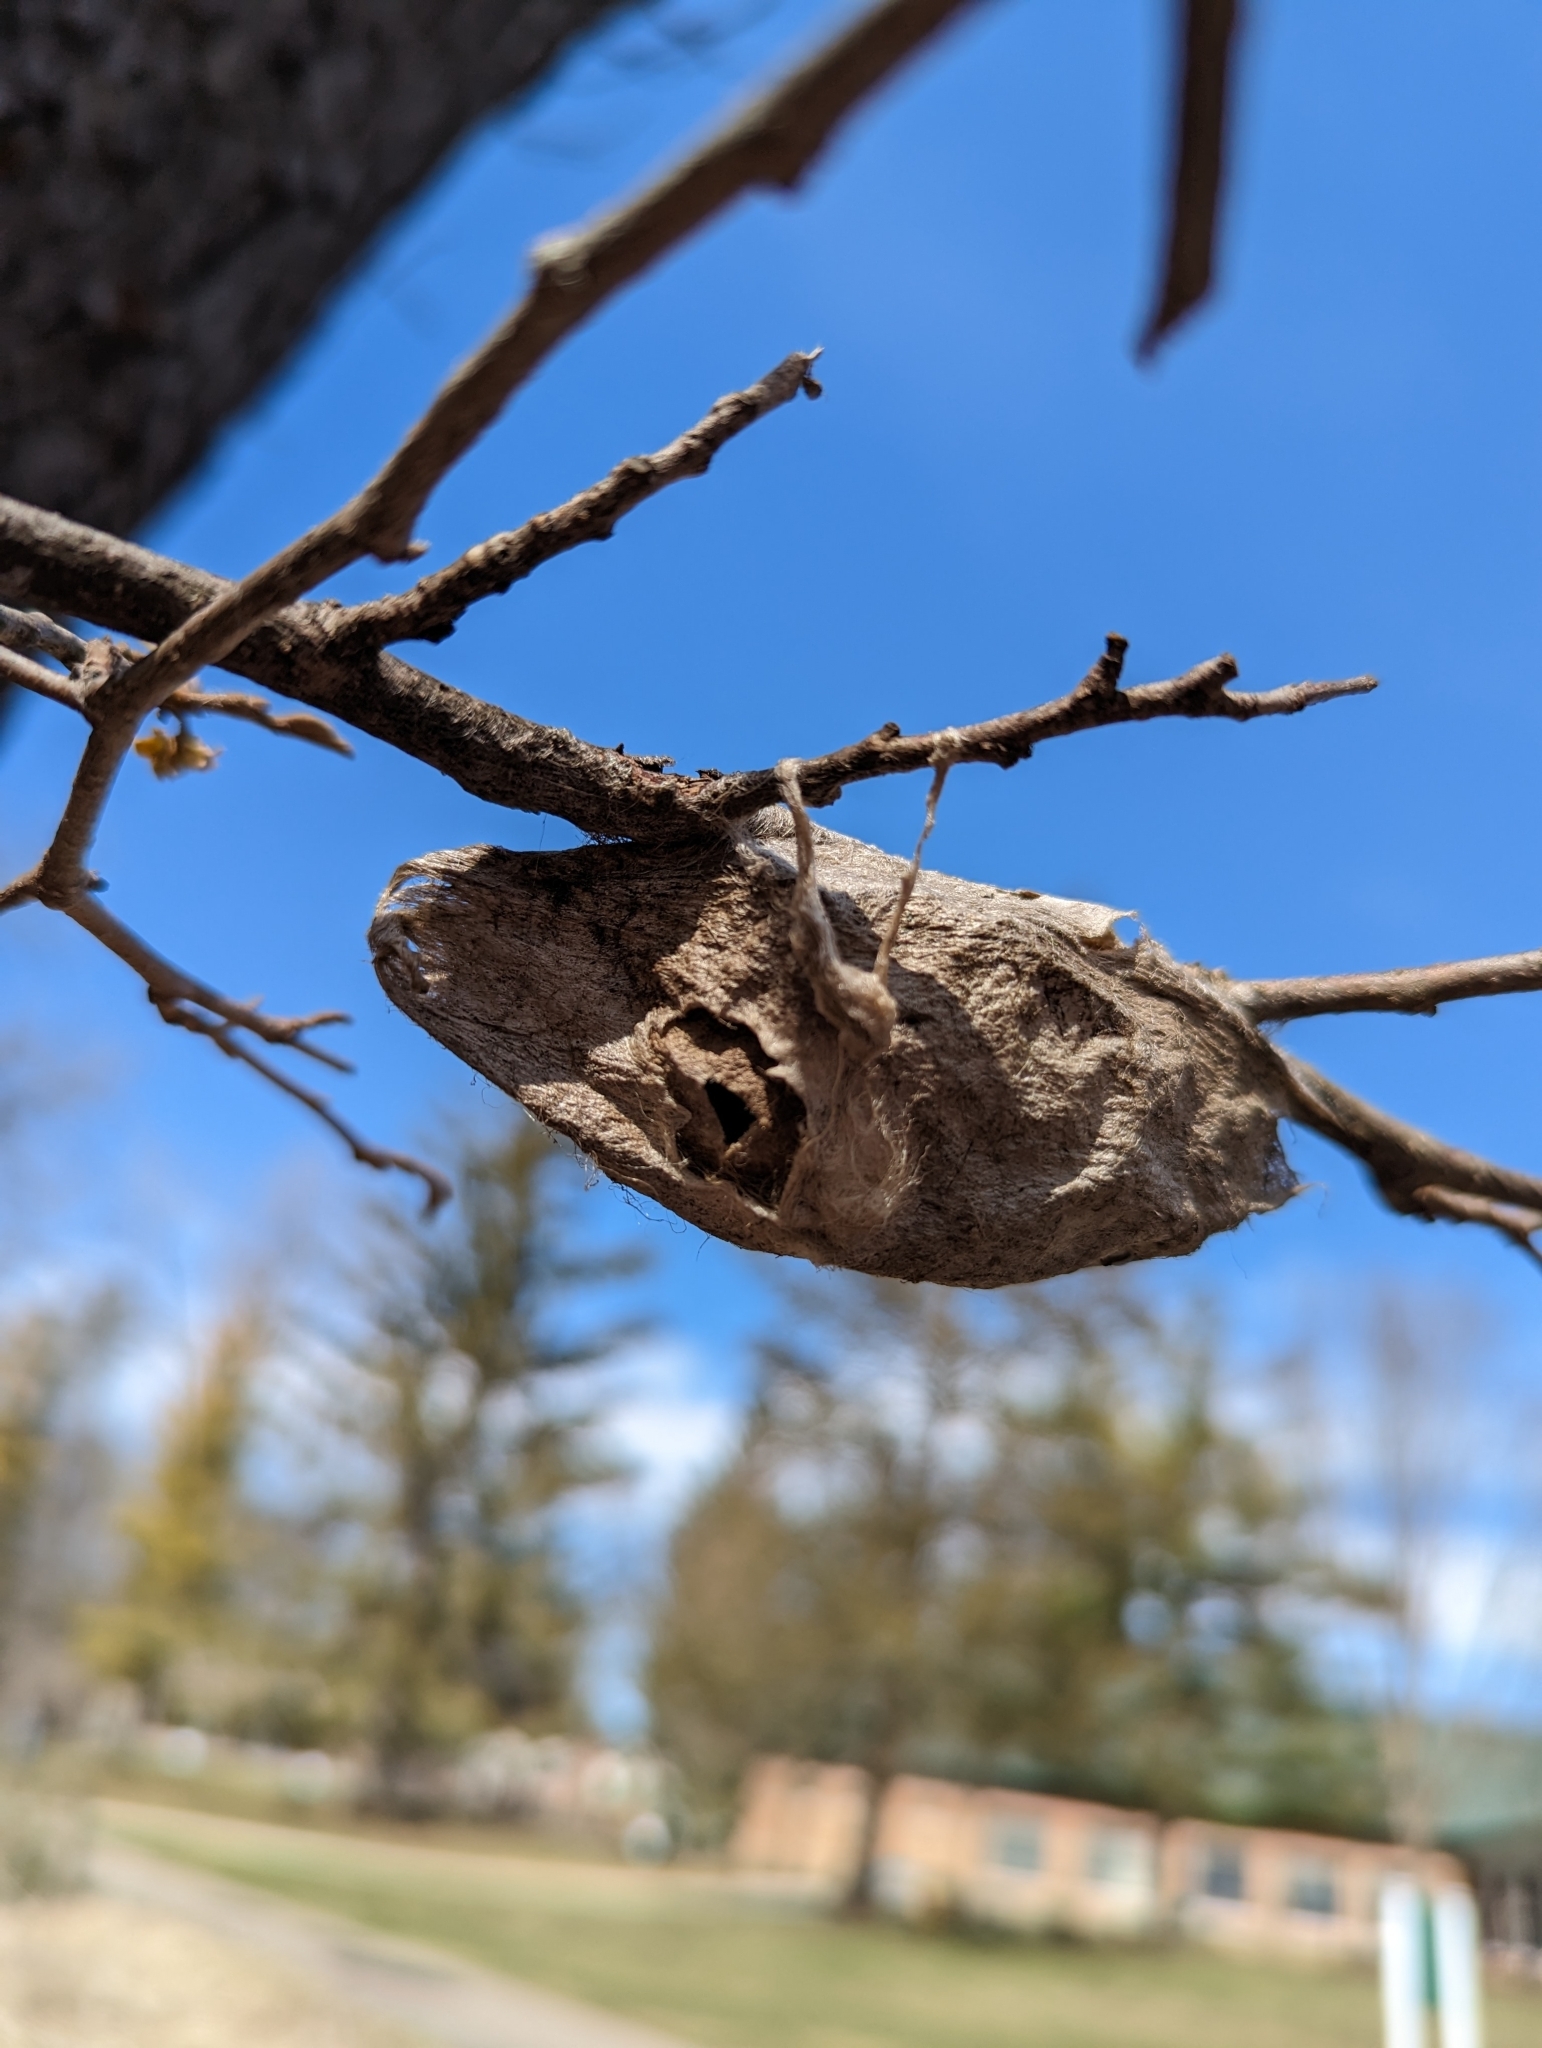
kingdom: Animalia
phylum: Arthropoda
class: Insecta
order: Lepidoptera
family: Saturniidae
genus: Hyalophora
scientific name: Hyalophora cecropia
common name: Cecropia silkmoth
